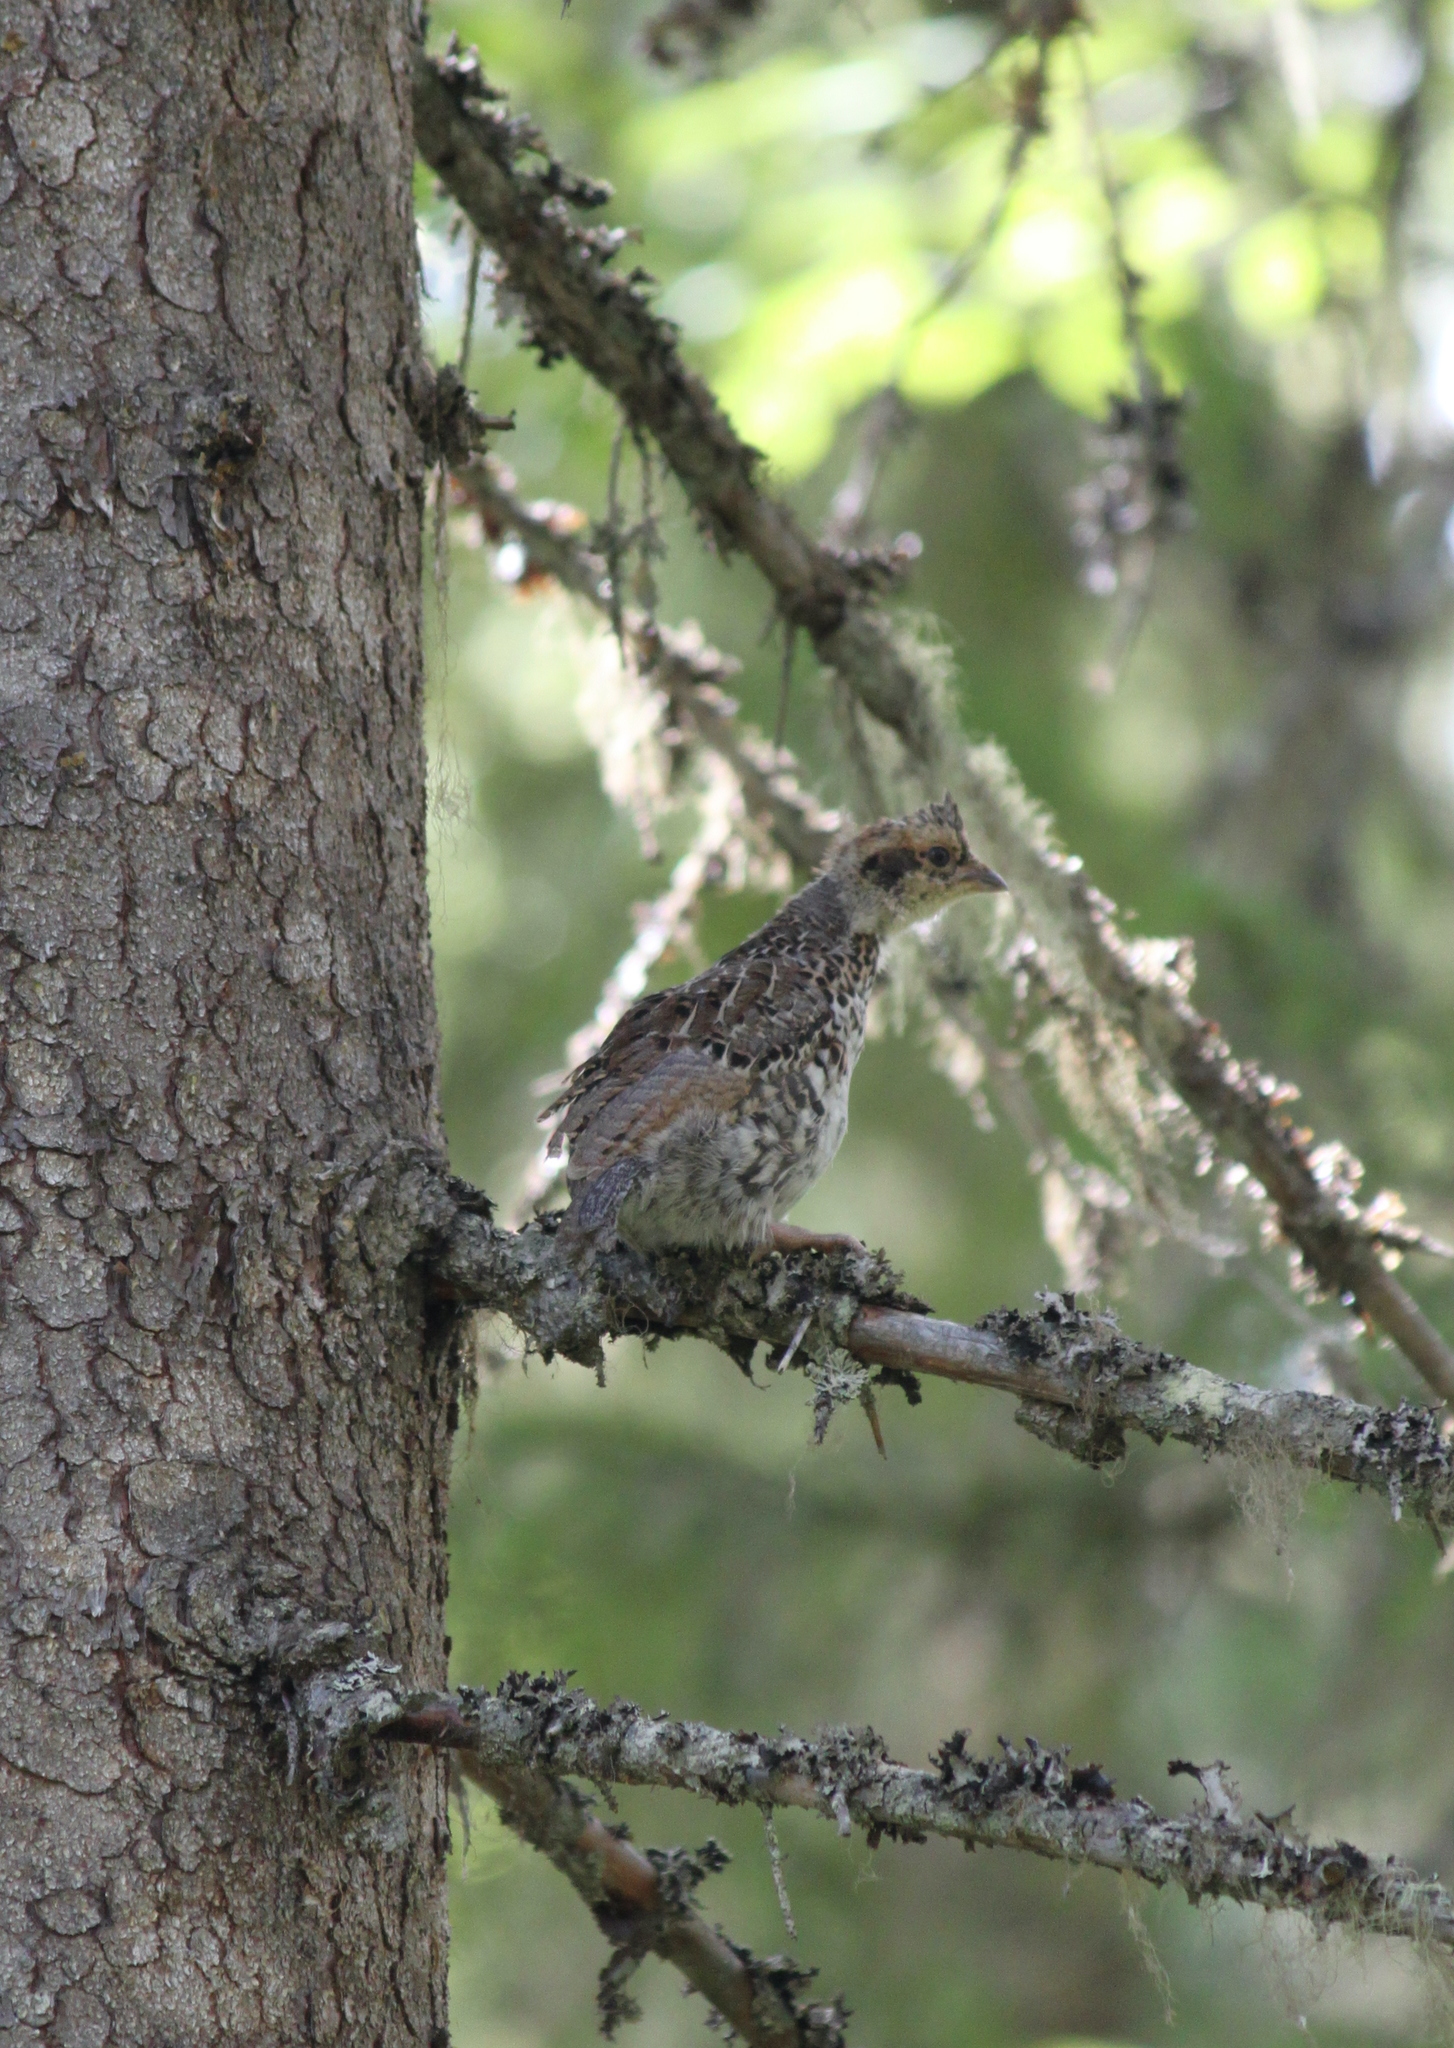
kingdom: Animalia
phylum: Chordata
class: Aves
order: Galliformes
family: Phasianidae
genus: Tetrastes
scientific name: Tetrastes bonasia
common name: Hazel grouse
